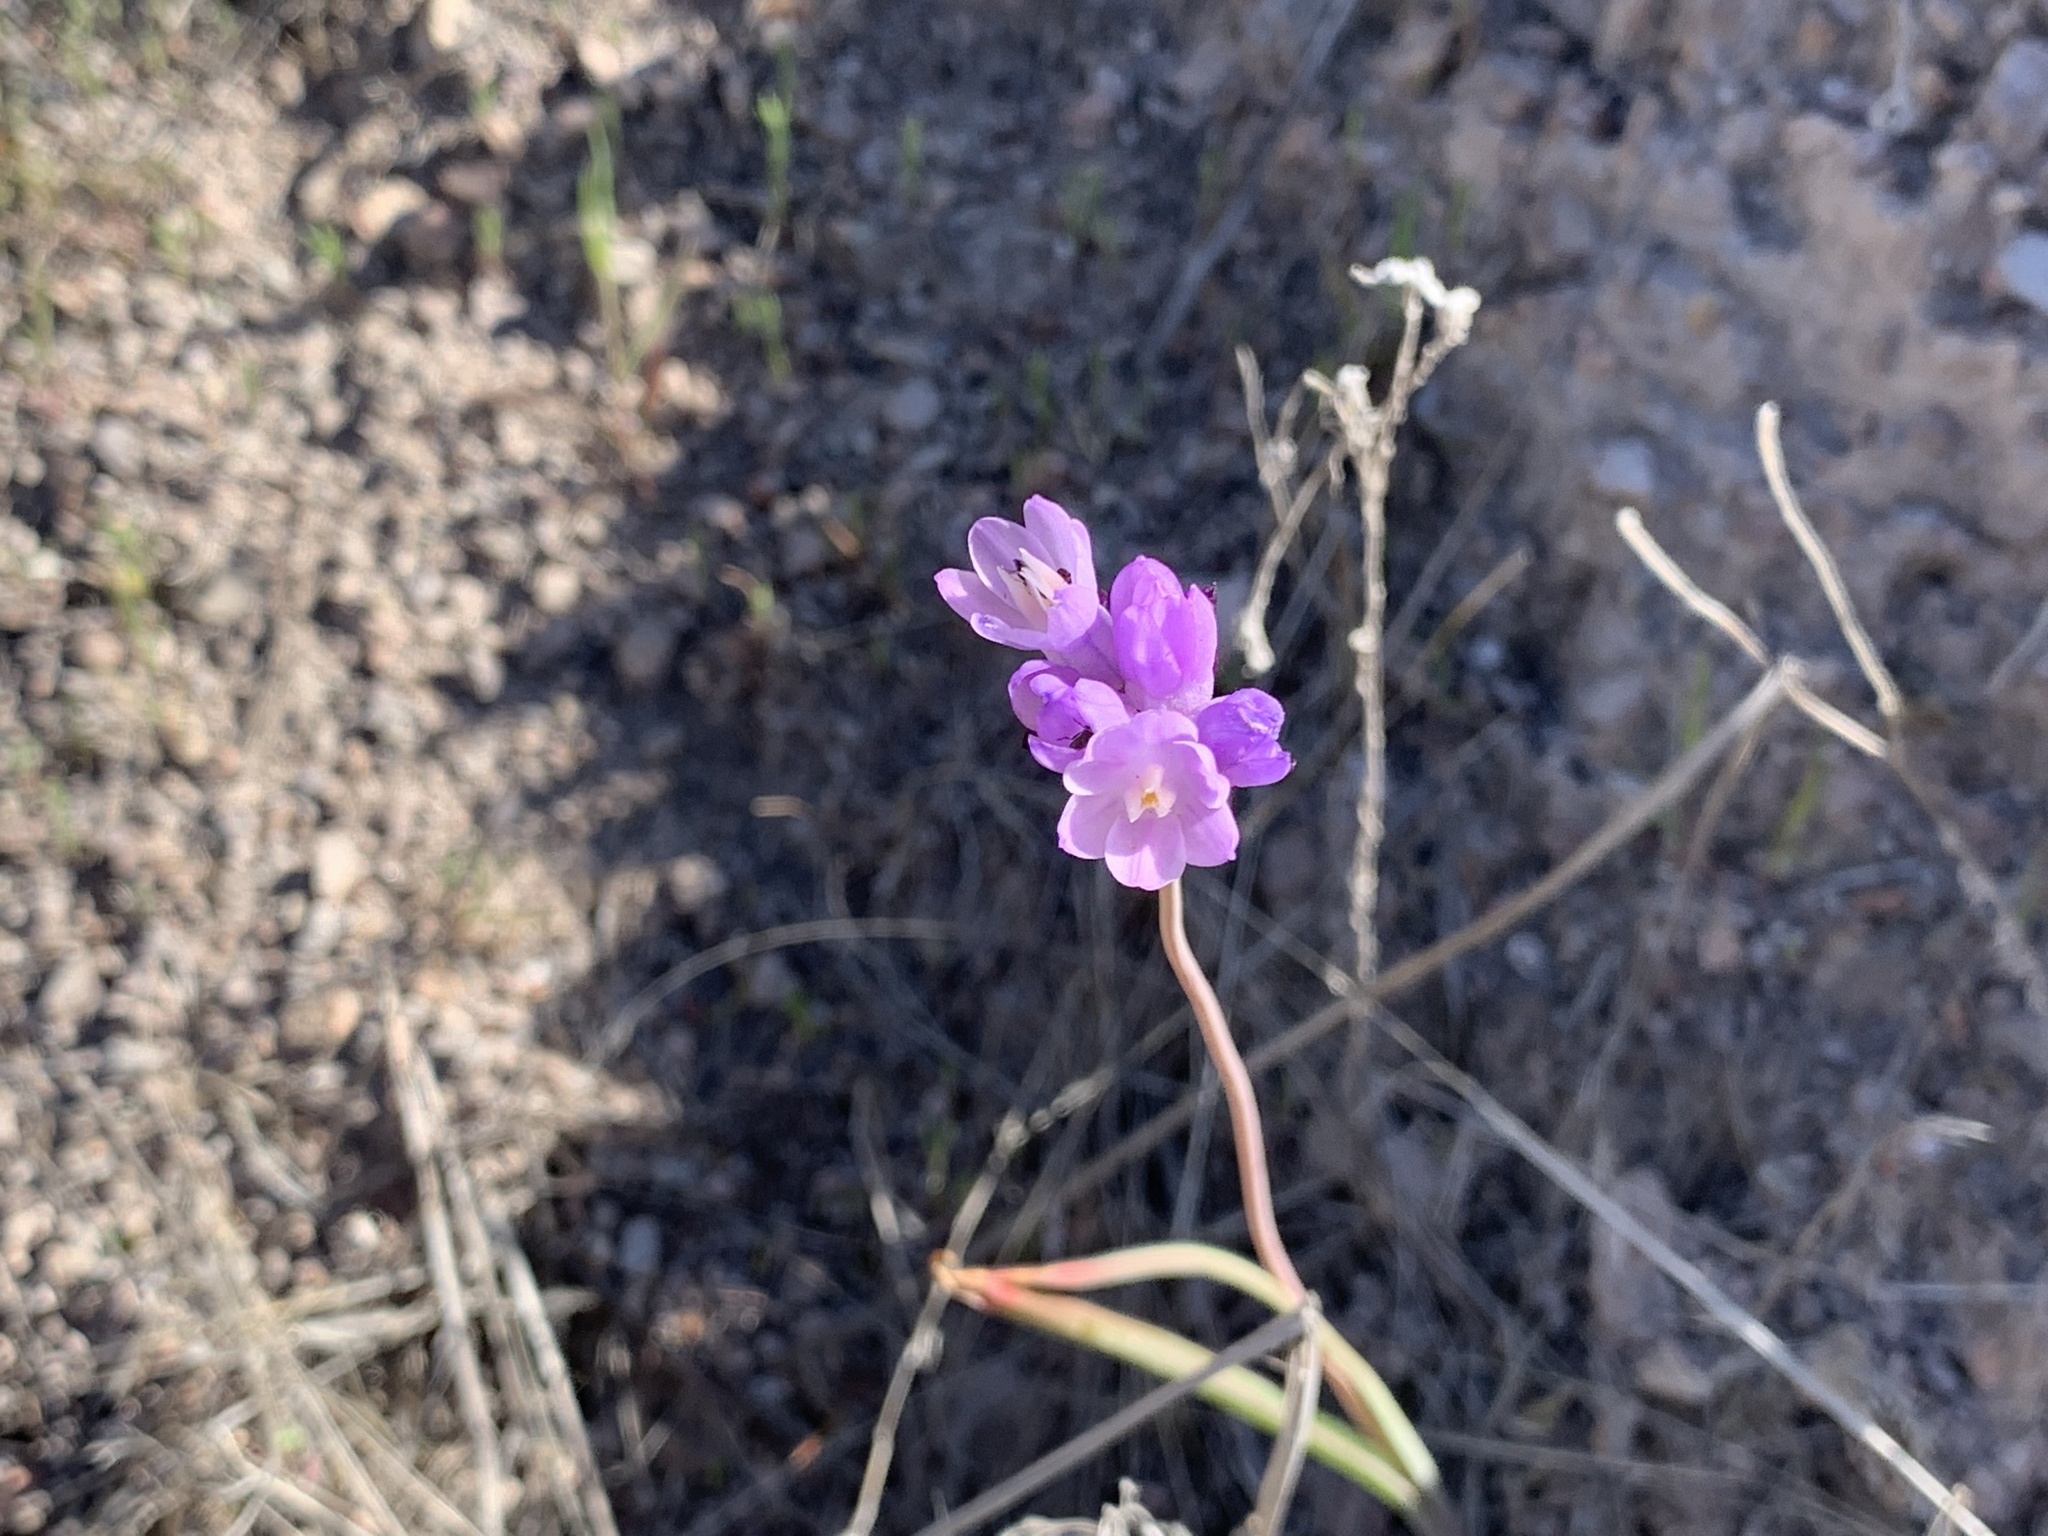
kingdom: Plantae
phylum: Tracheophyta
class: Liliopsida
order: Asparagales
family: Asparagaceae
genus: Dipterostemon
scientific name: Dipterostemon capitatus
